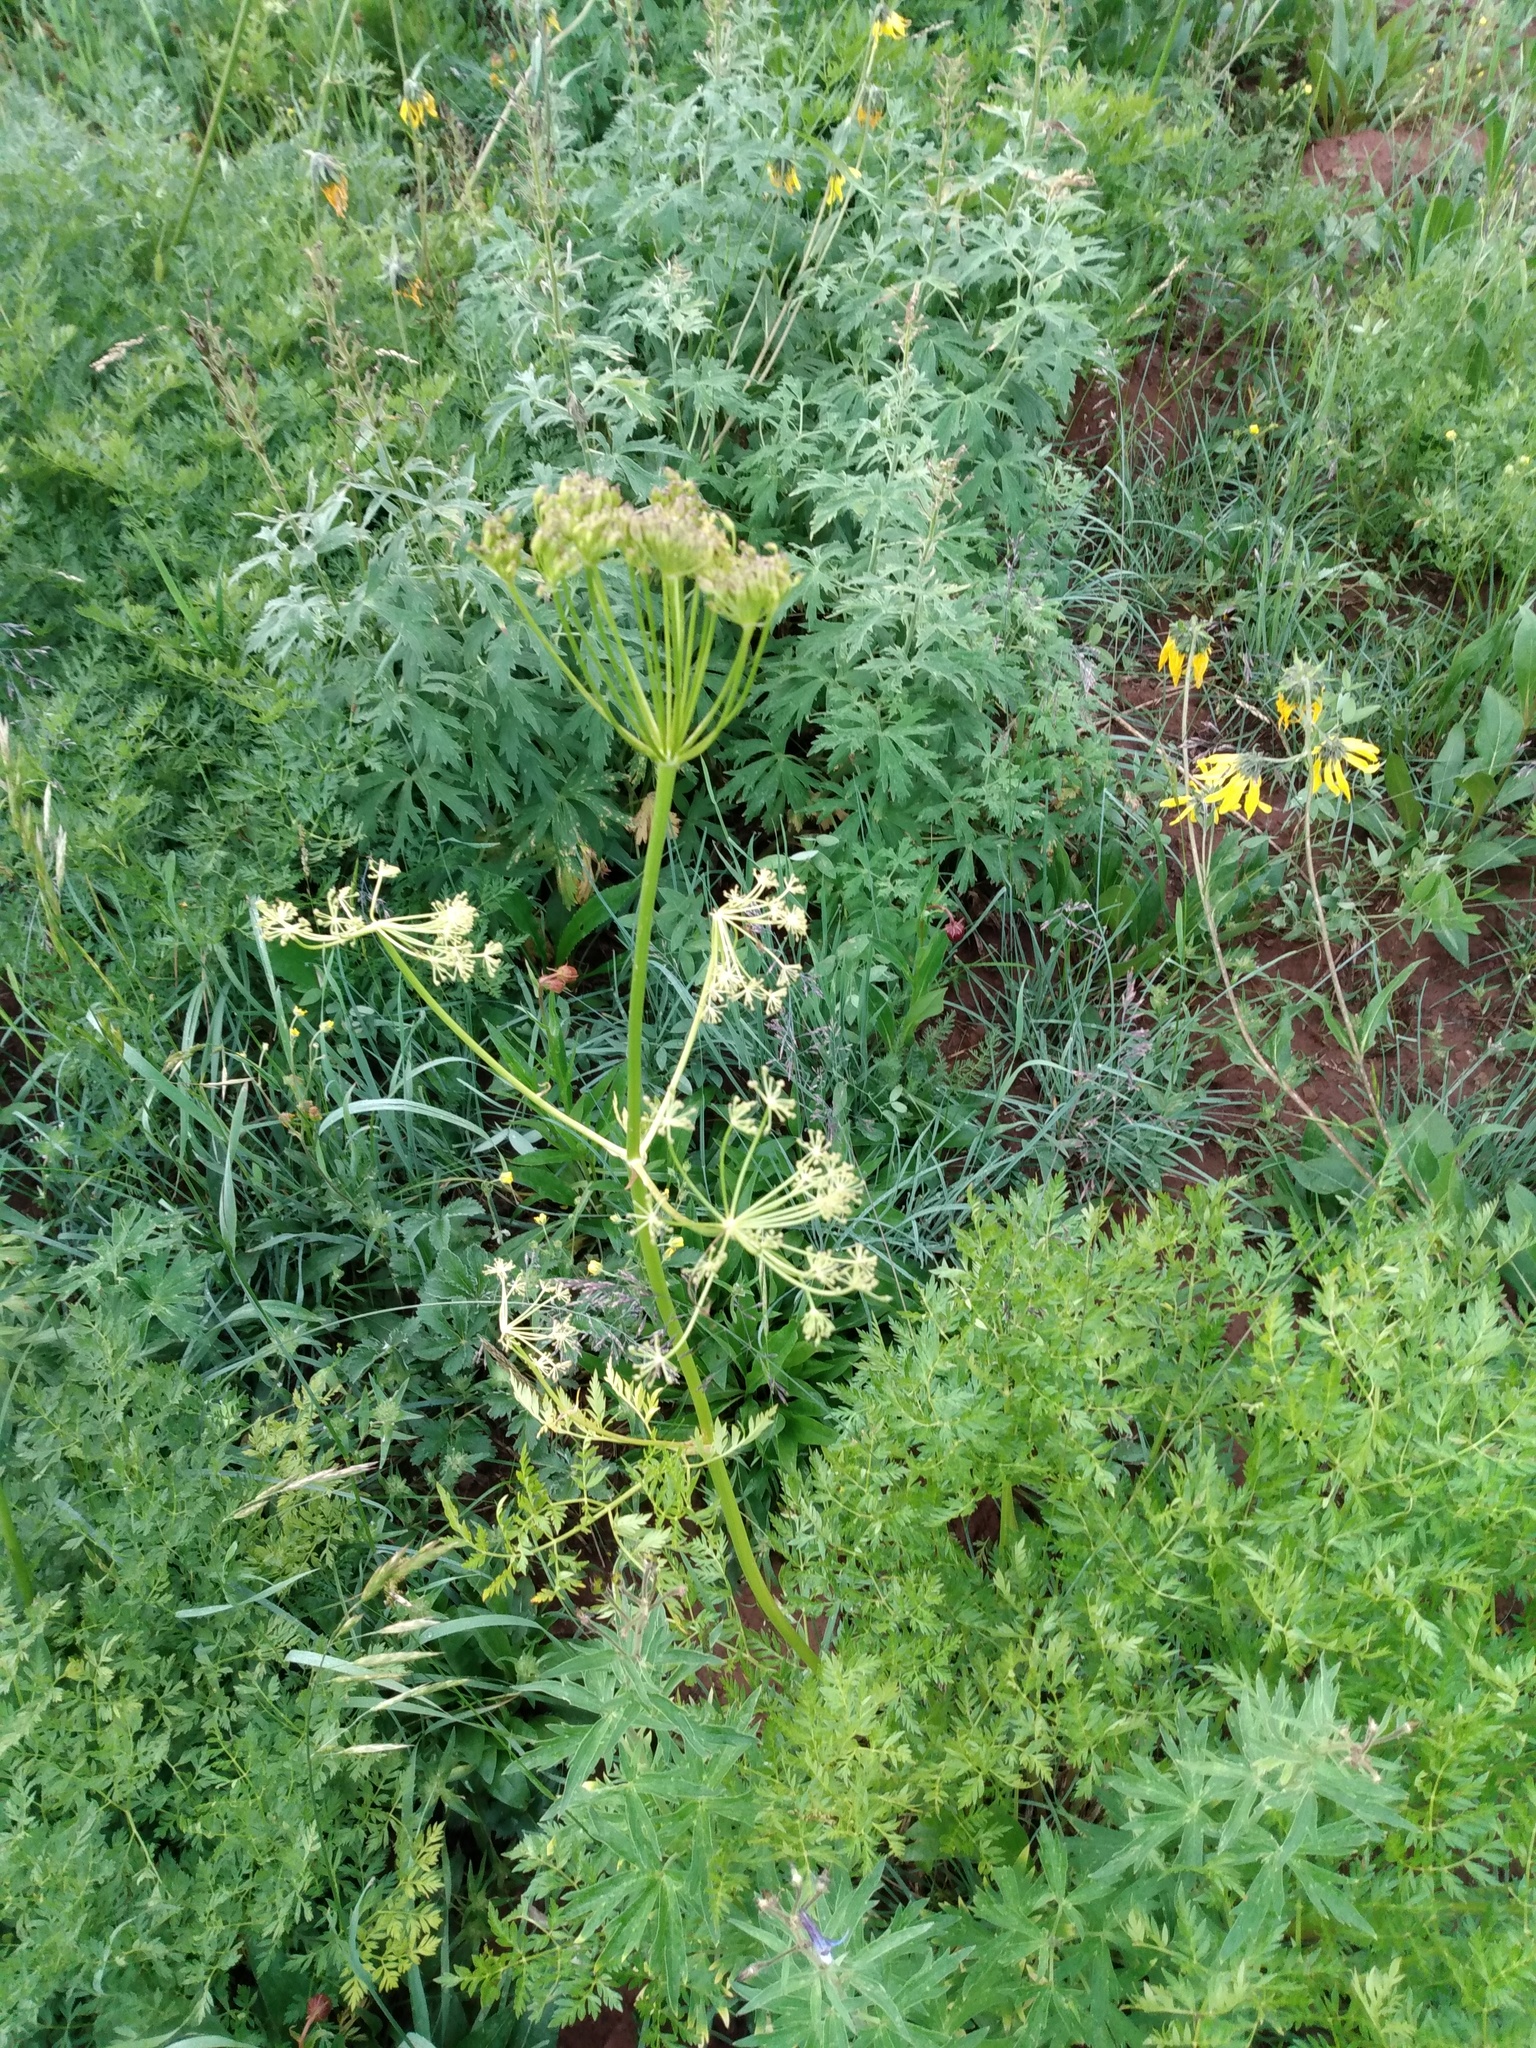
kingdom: Plantae
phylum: Tracheophyta
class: Magnoliopsida
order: Apiales
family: Apiaceae
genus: Ligusticum
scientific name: Ligusticum porteri
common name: Mountain lovage
